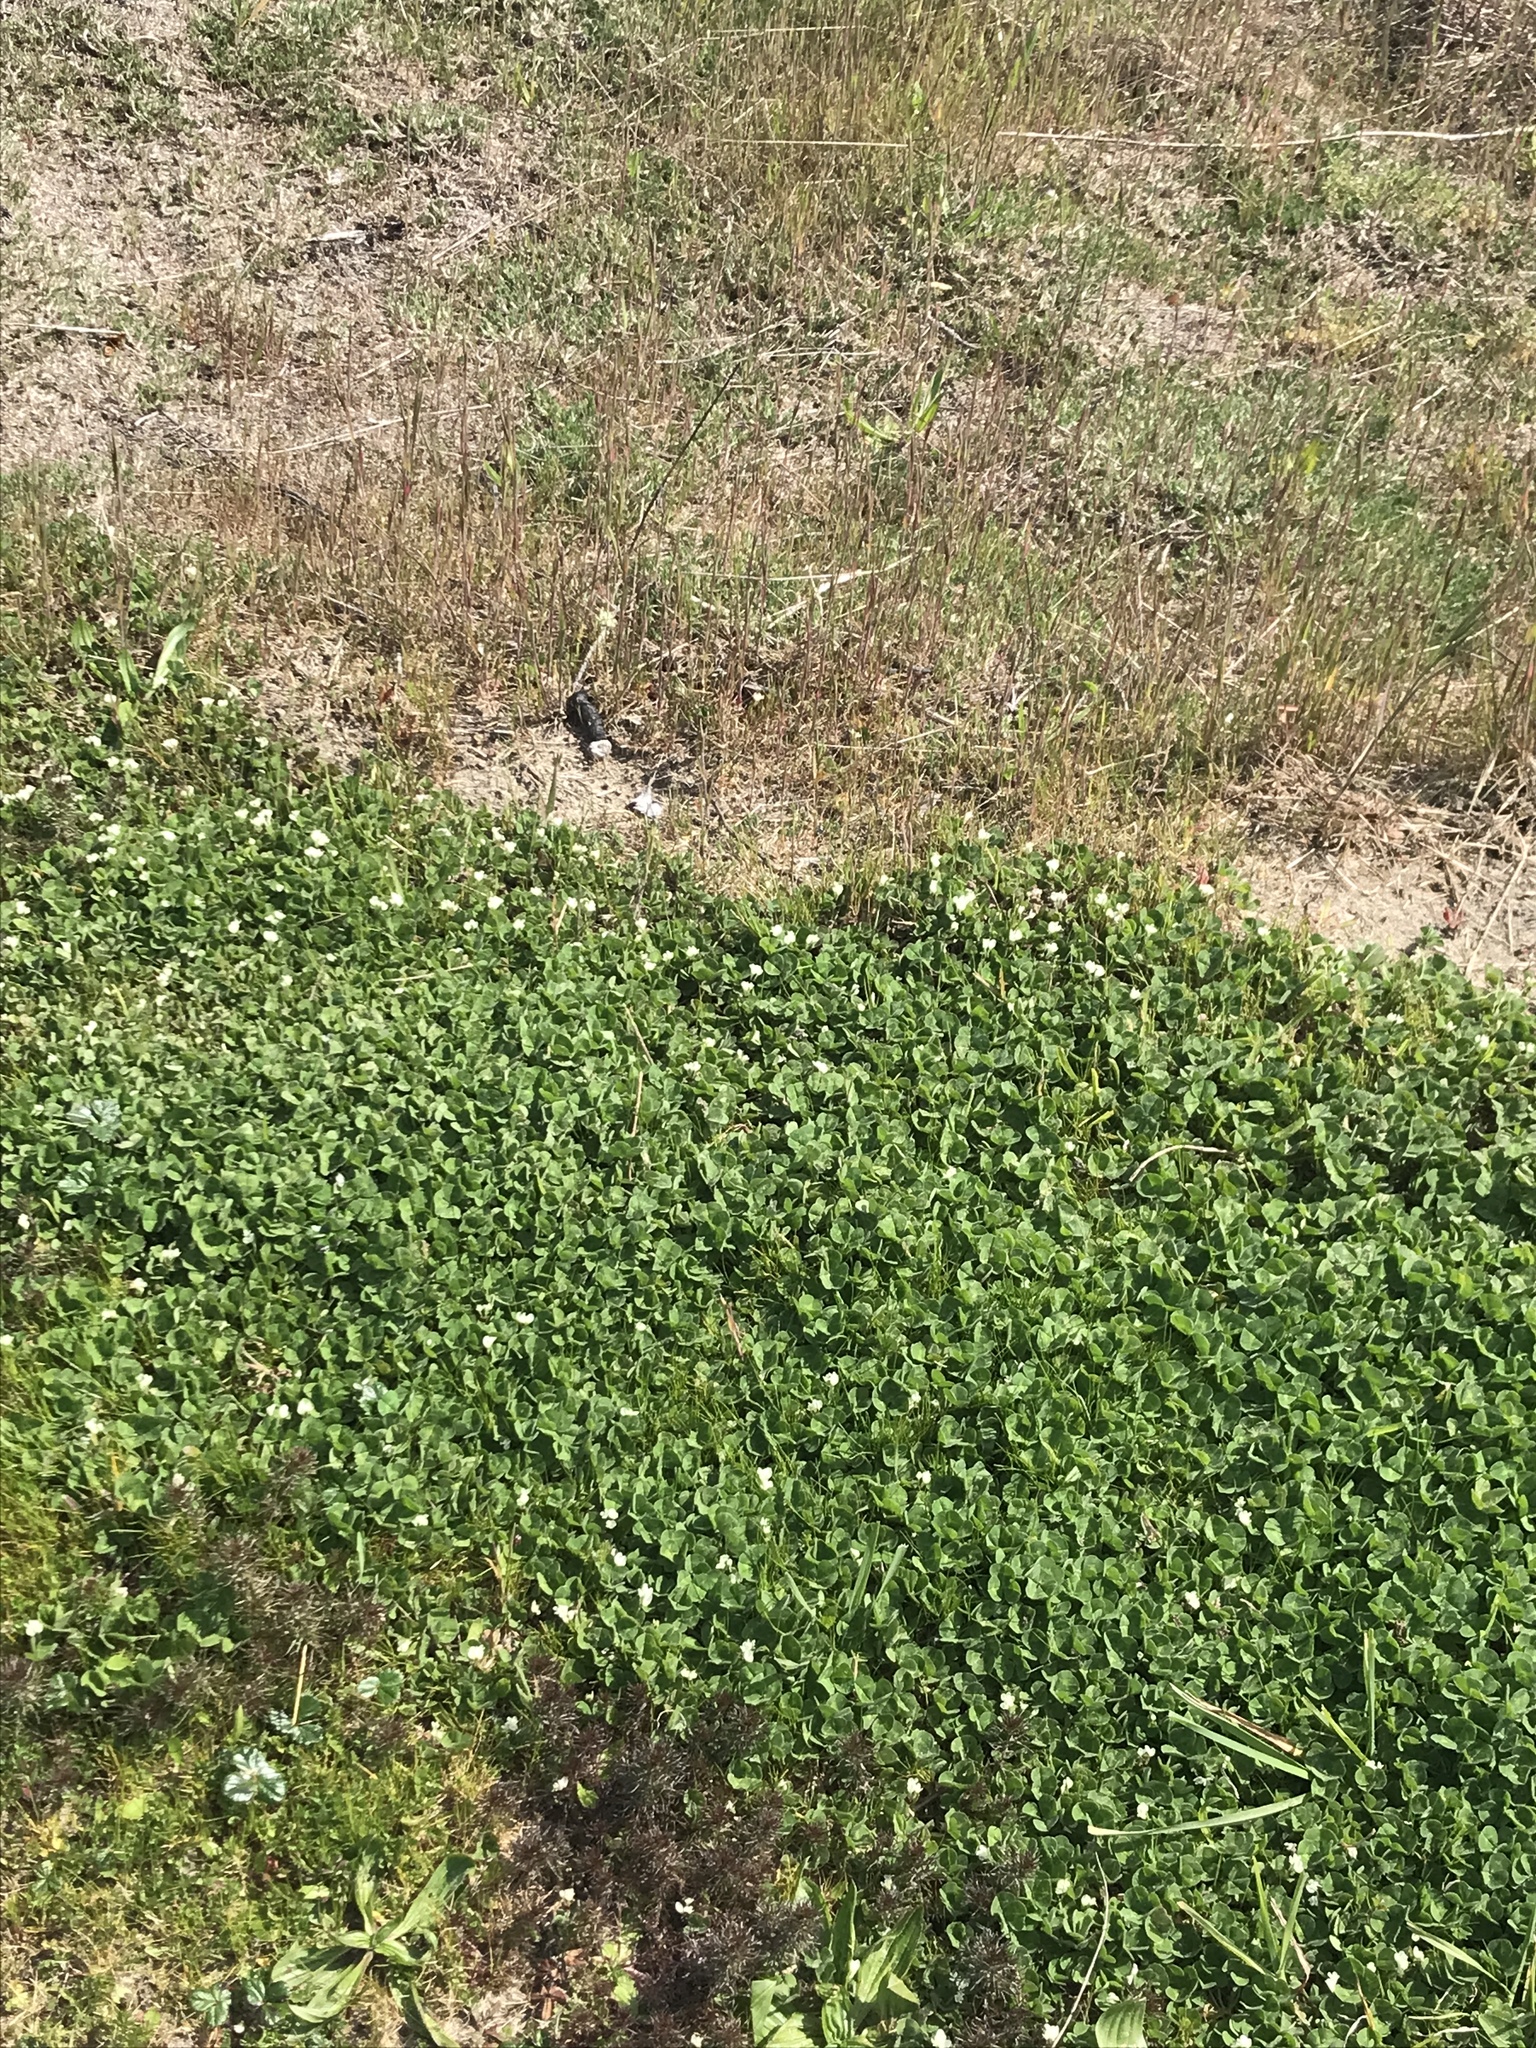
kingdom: Plantae
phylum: Tracheophyta
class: Magnoliopsida
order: Fabales
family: Fabaceae
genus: Trifolium
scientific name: Trifolium subterraneum
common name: Subterranean clover
